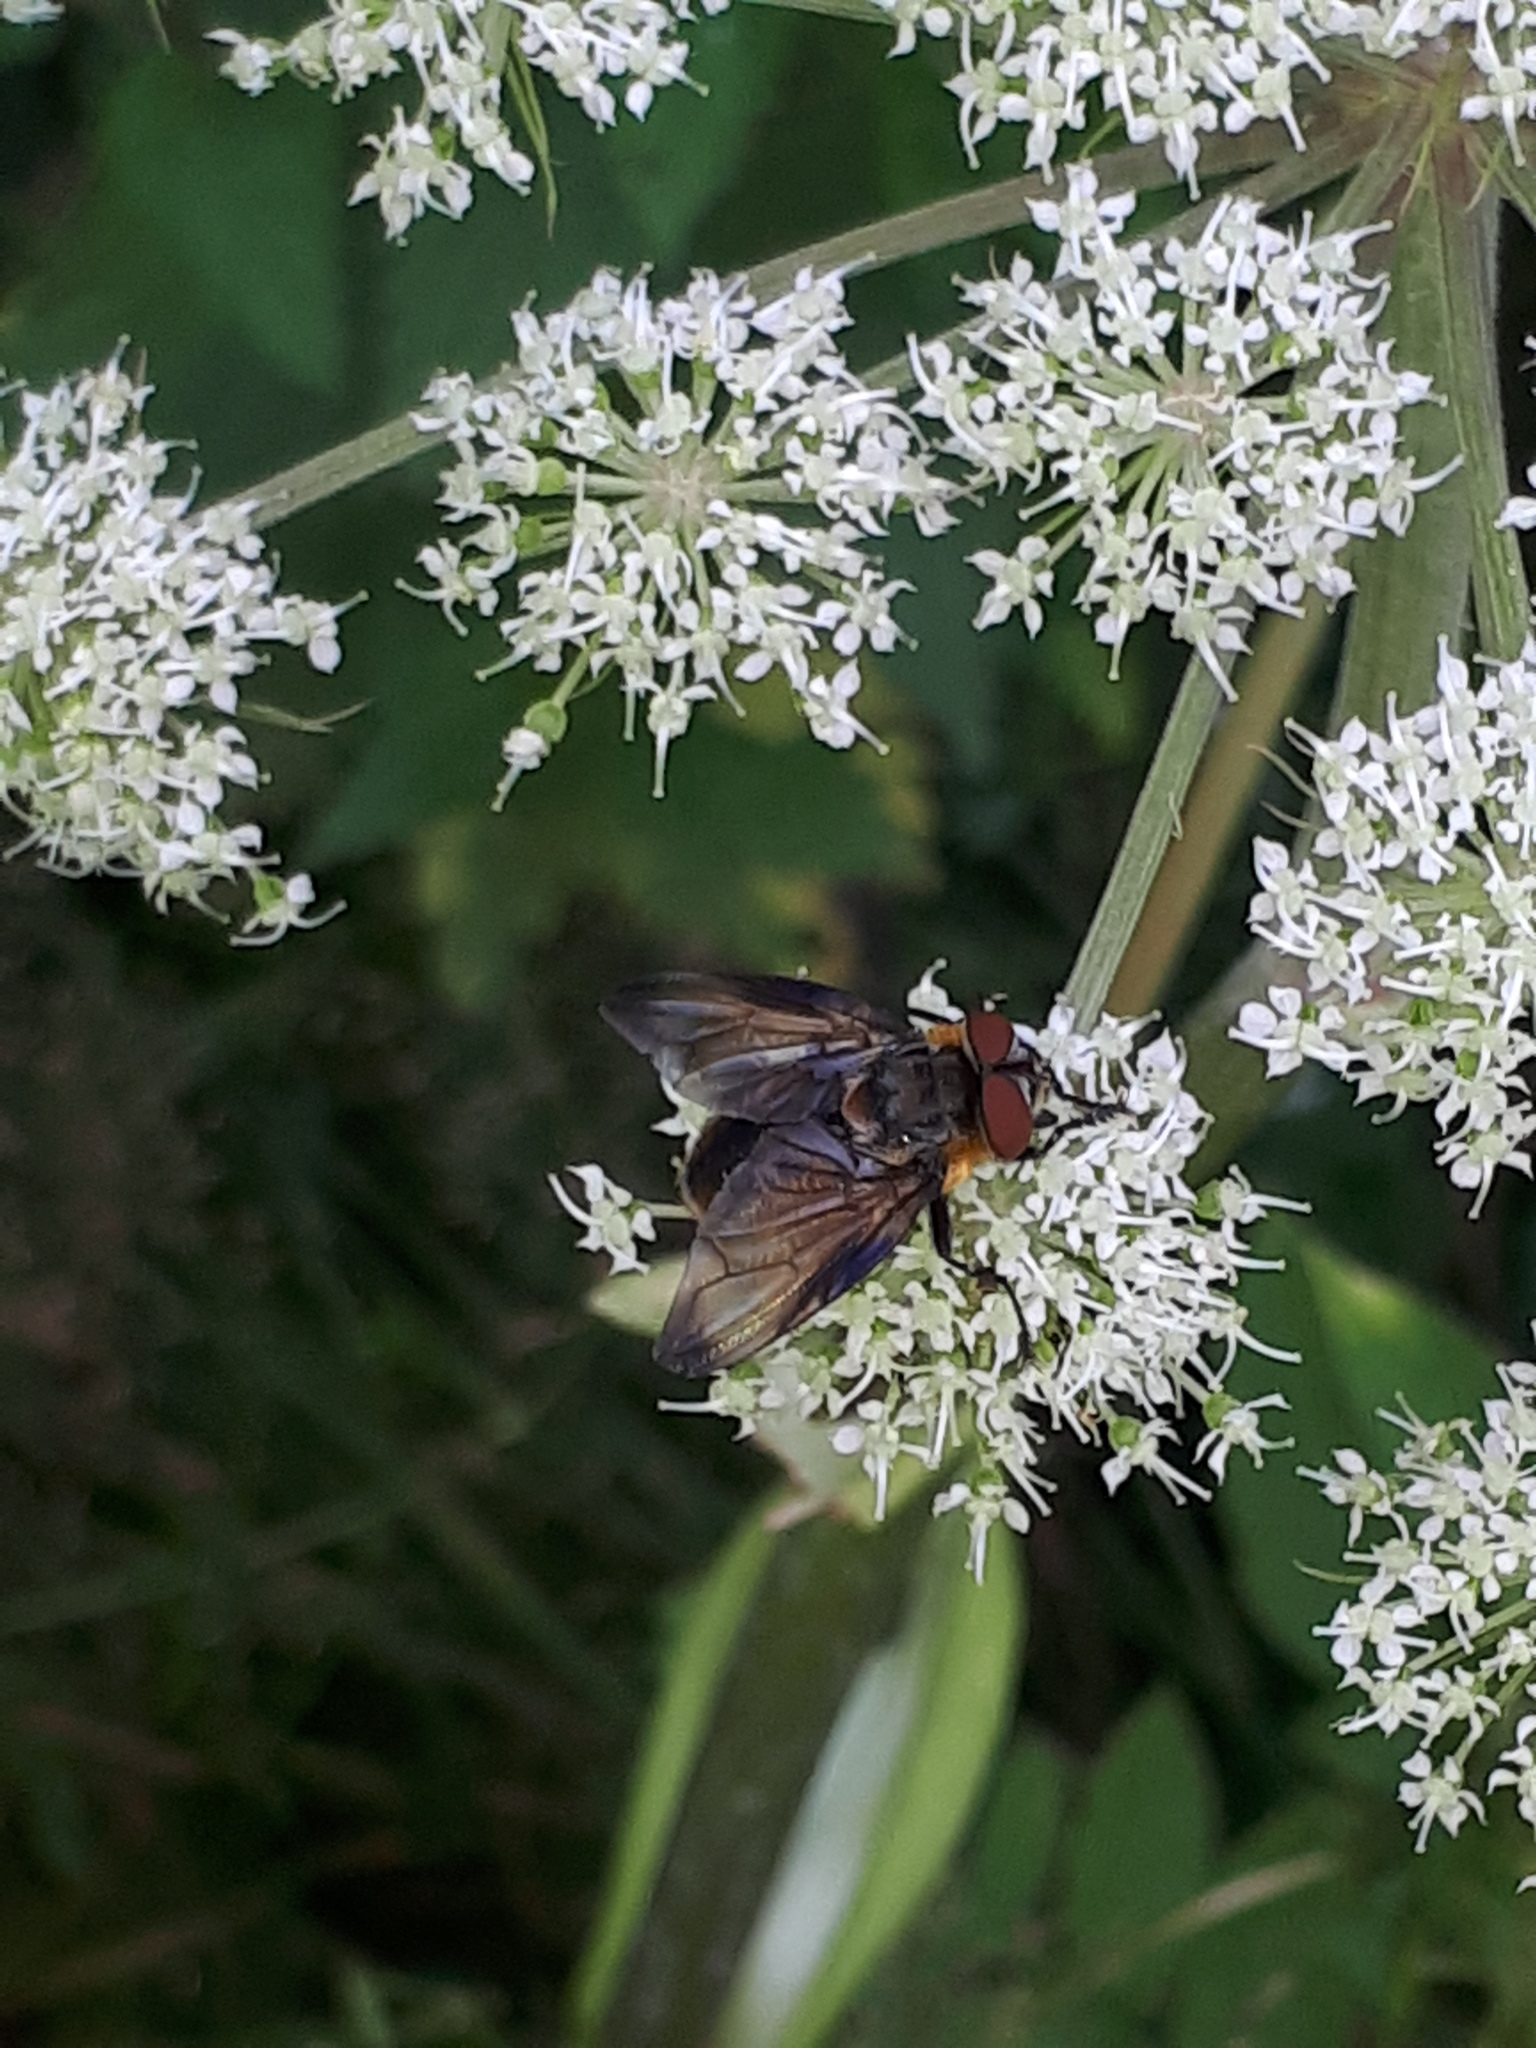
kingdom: Animalia
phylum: Arthropoda
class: Insecta
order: Diptera
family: Tachinidae
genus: Phasia
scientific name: Phasia hemiptera
